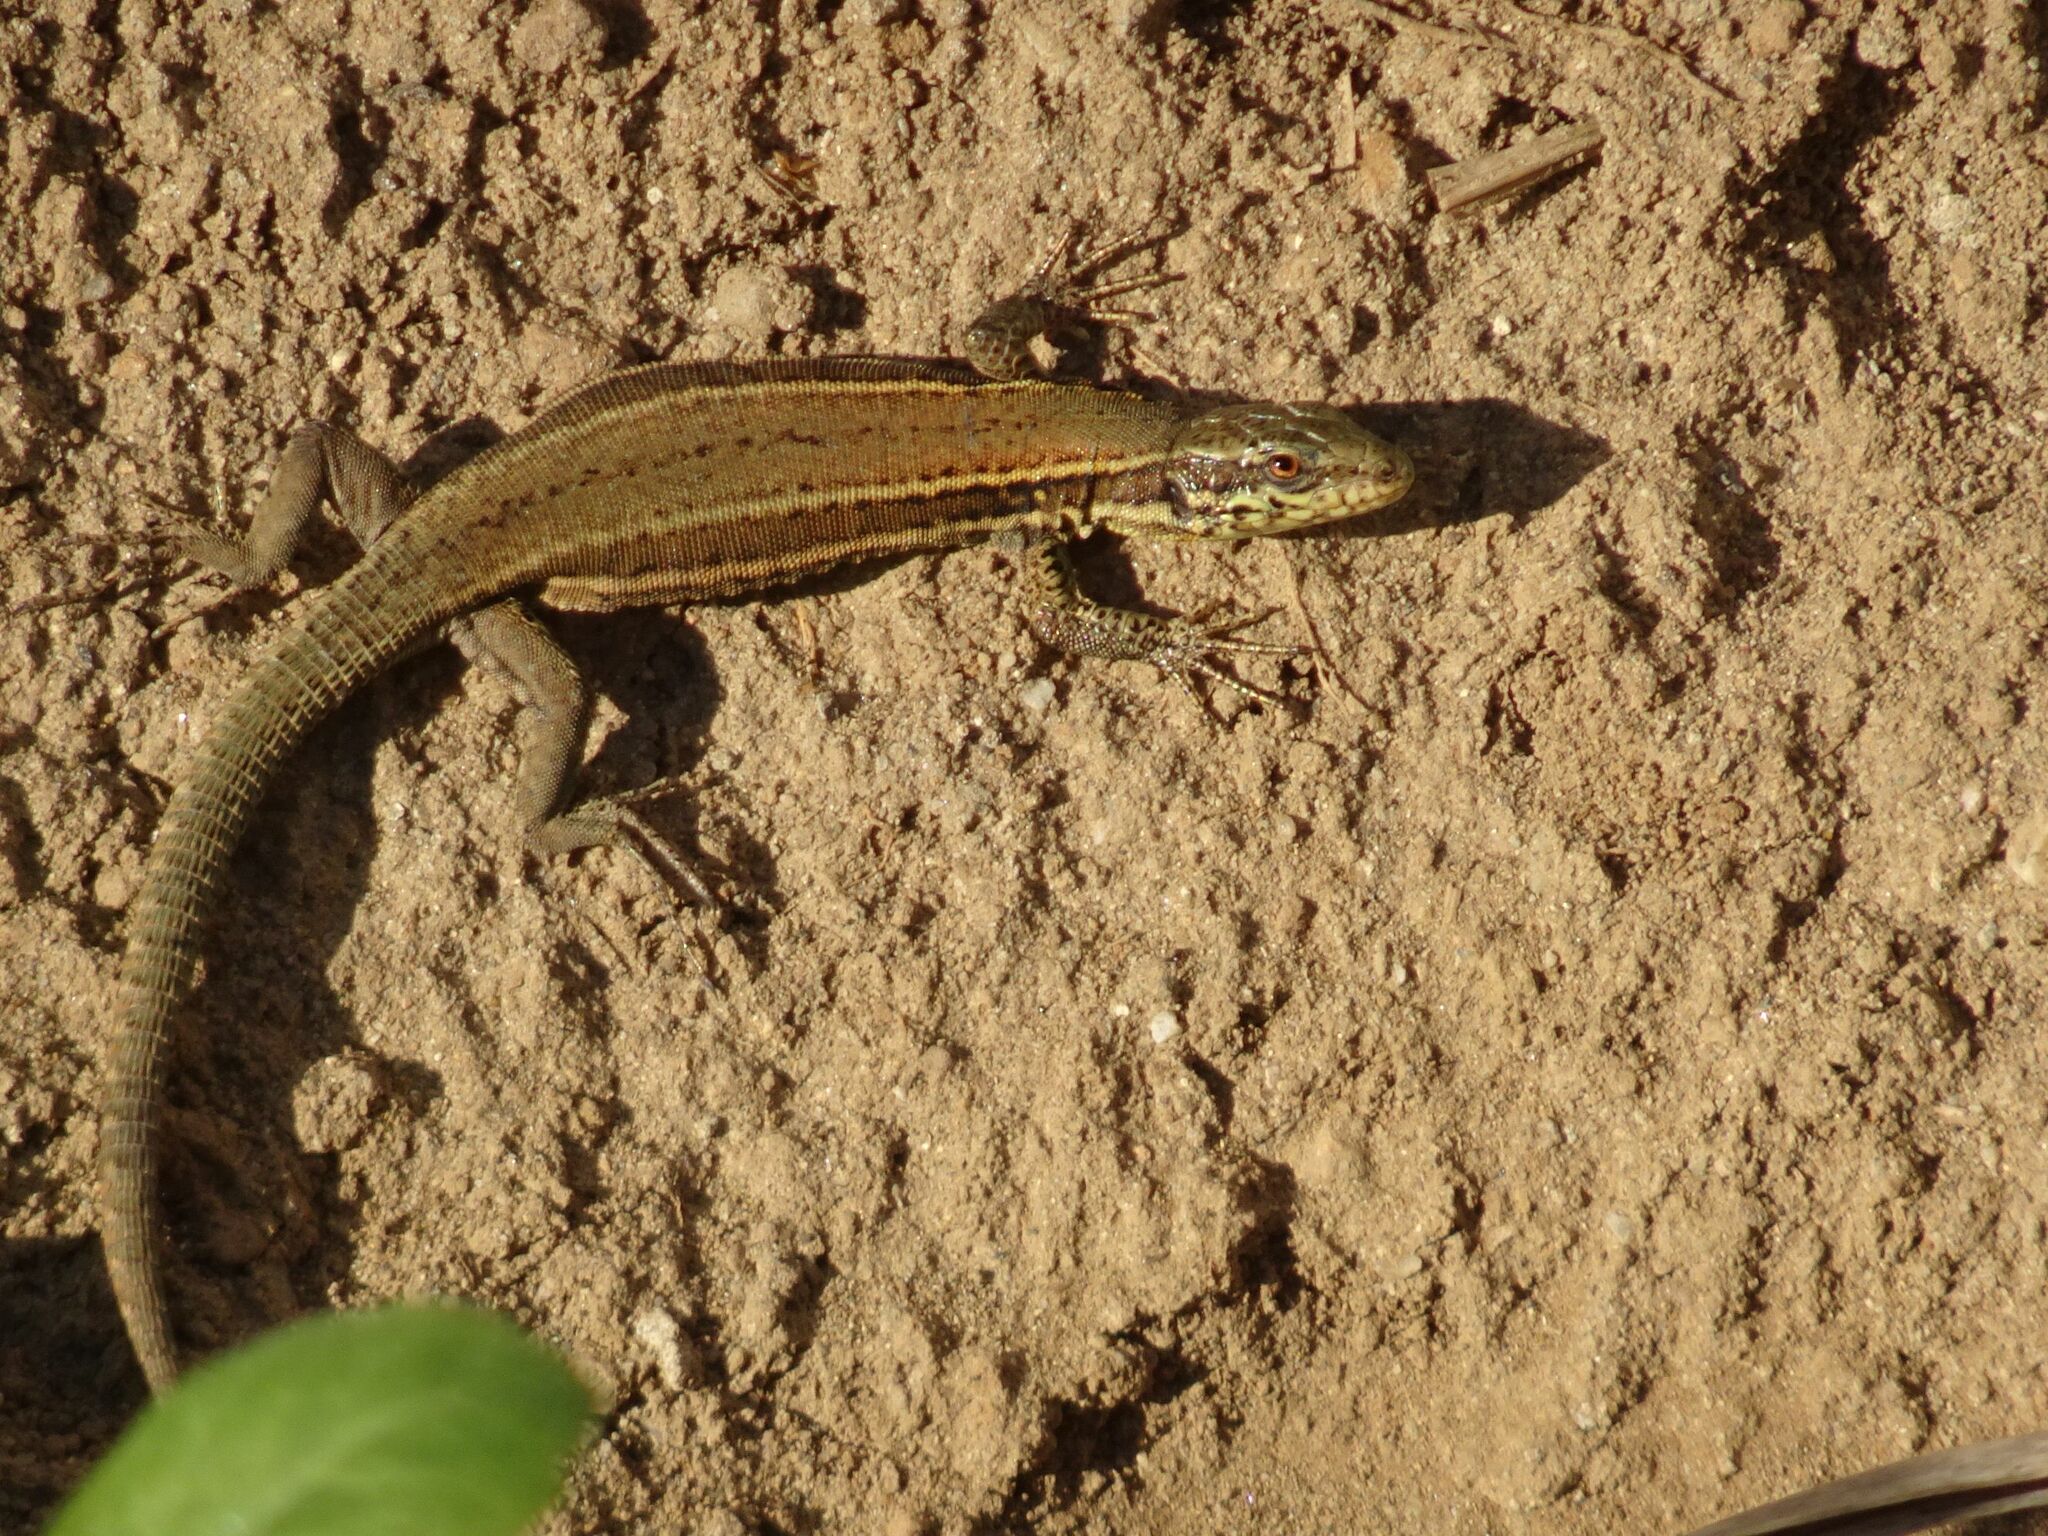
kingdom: Animalia
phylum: Chordata
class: Squamata
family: Lacertidae
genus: Podarcis
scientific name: Podarcis muralis
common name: Common wall lizard
